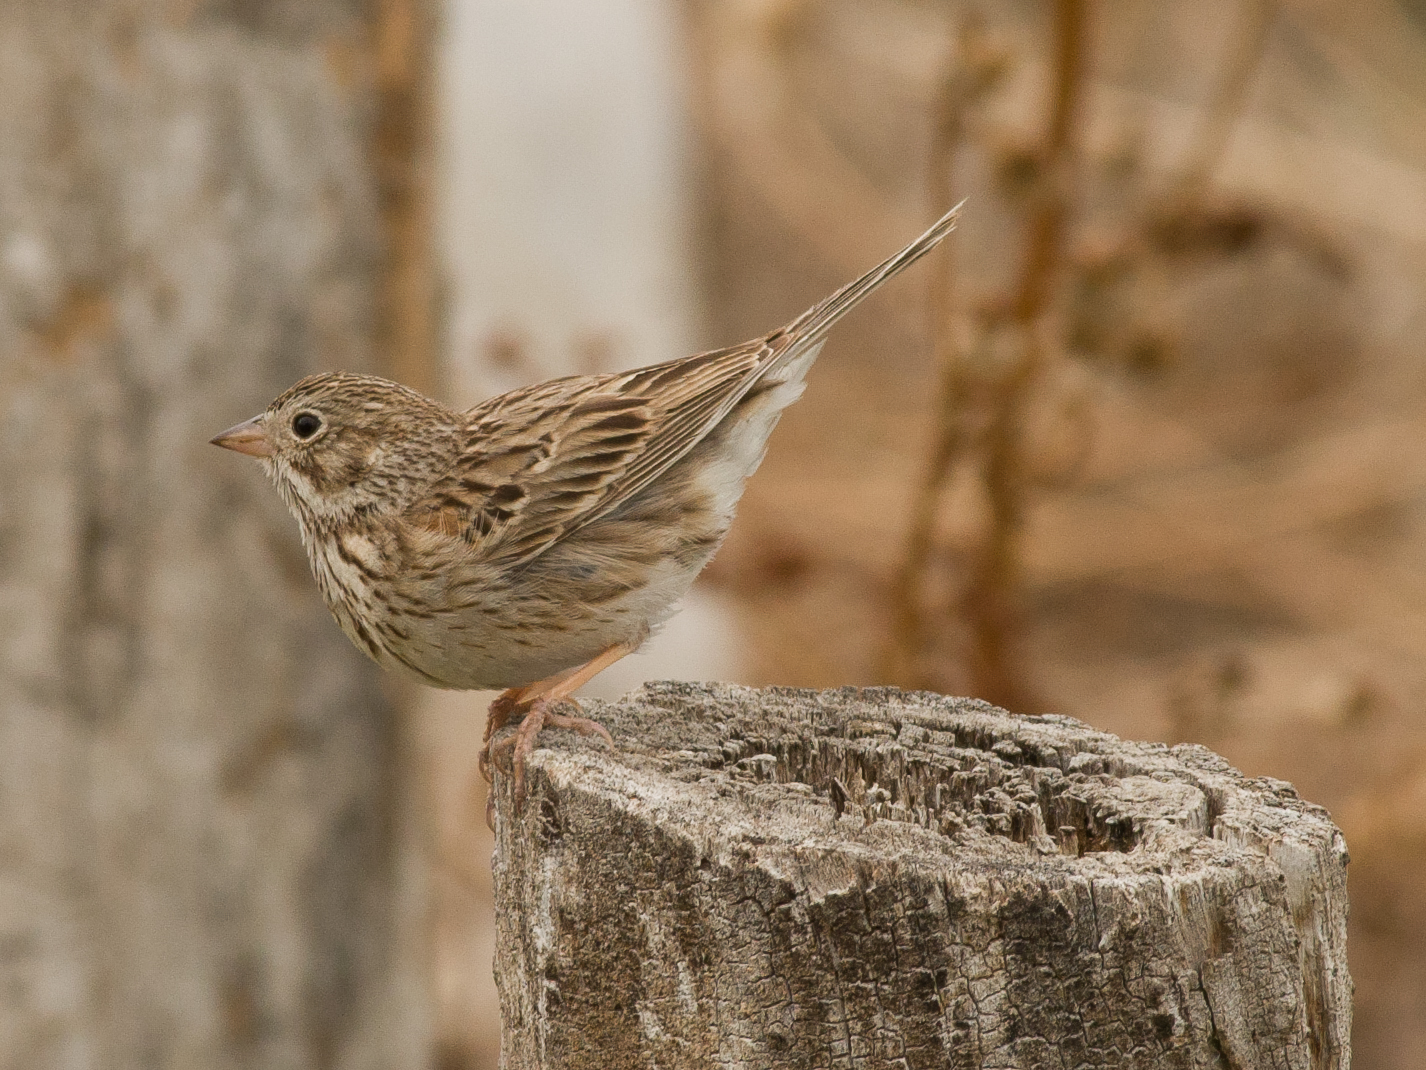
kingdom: Animalia
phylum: Chordata
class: Aves
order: Passeriformes
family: Passerellidae
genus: Pooecetes
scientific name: Pooecetes gramineus
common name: Vesper sparrow
